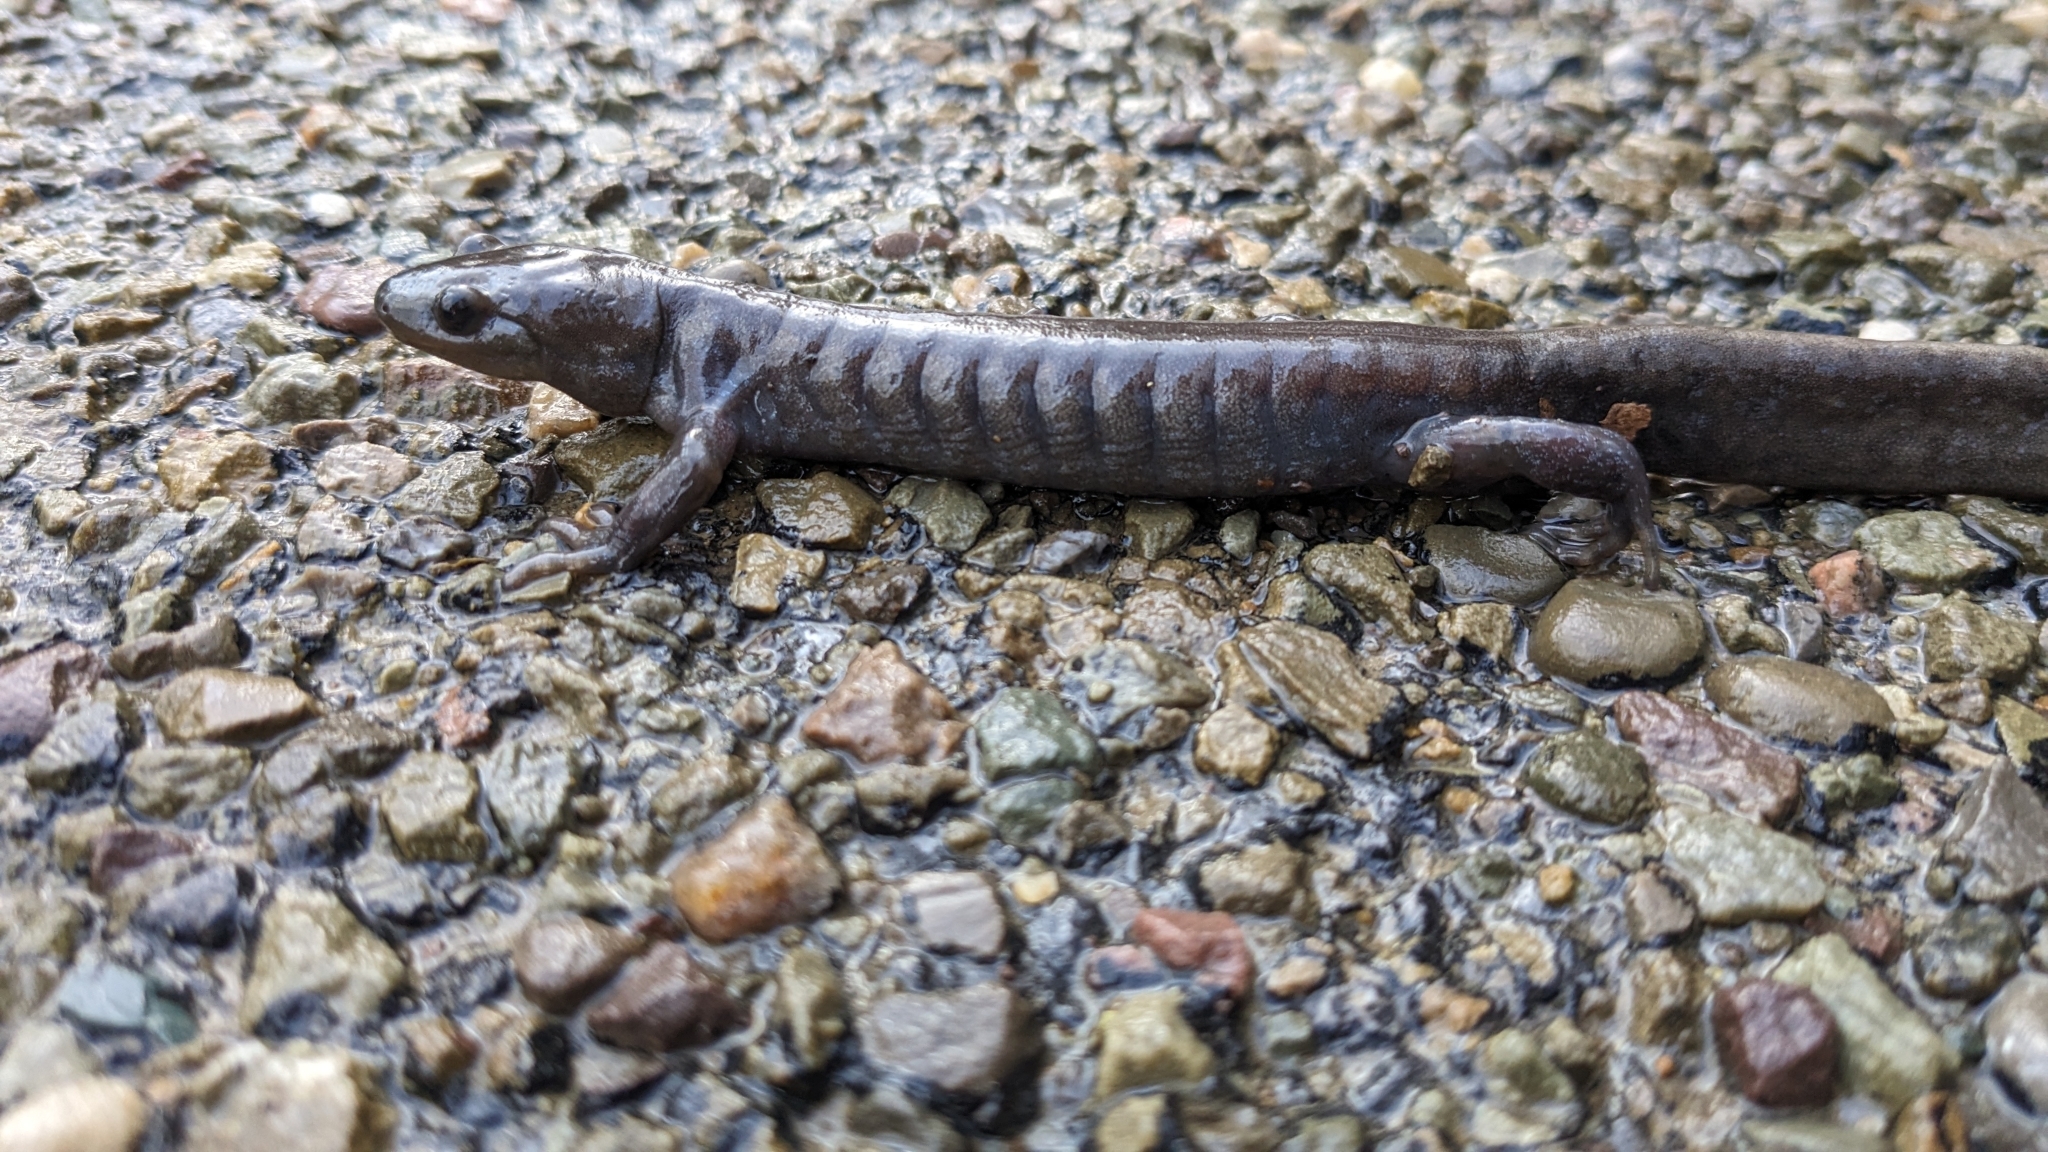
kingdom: Animalia
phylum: Chordata
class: Amphibia
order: Caudata
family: Ambystomatidae
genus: Ambystoma
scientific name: Ambystoma jeffersonianum
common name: Jefferson salamander
